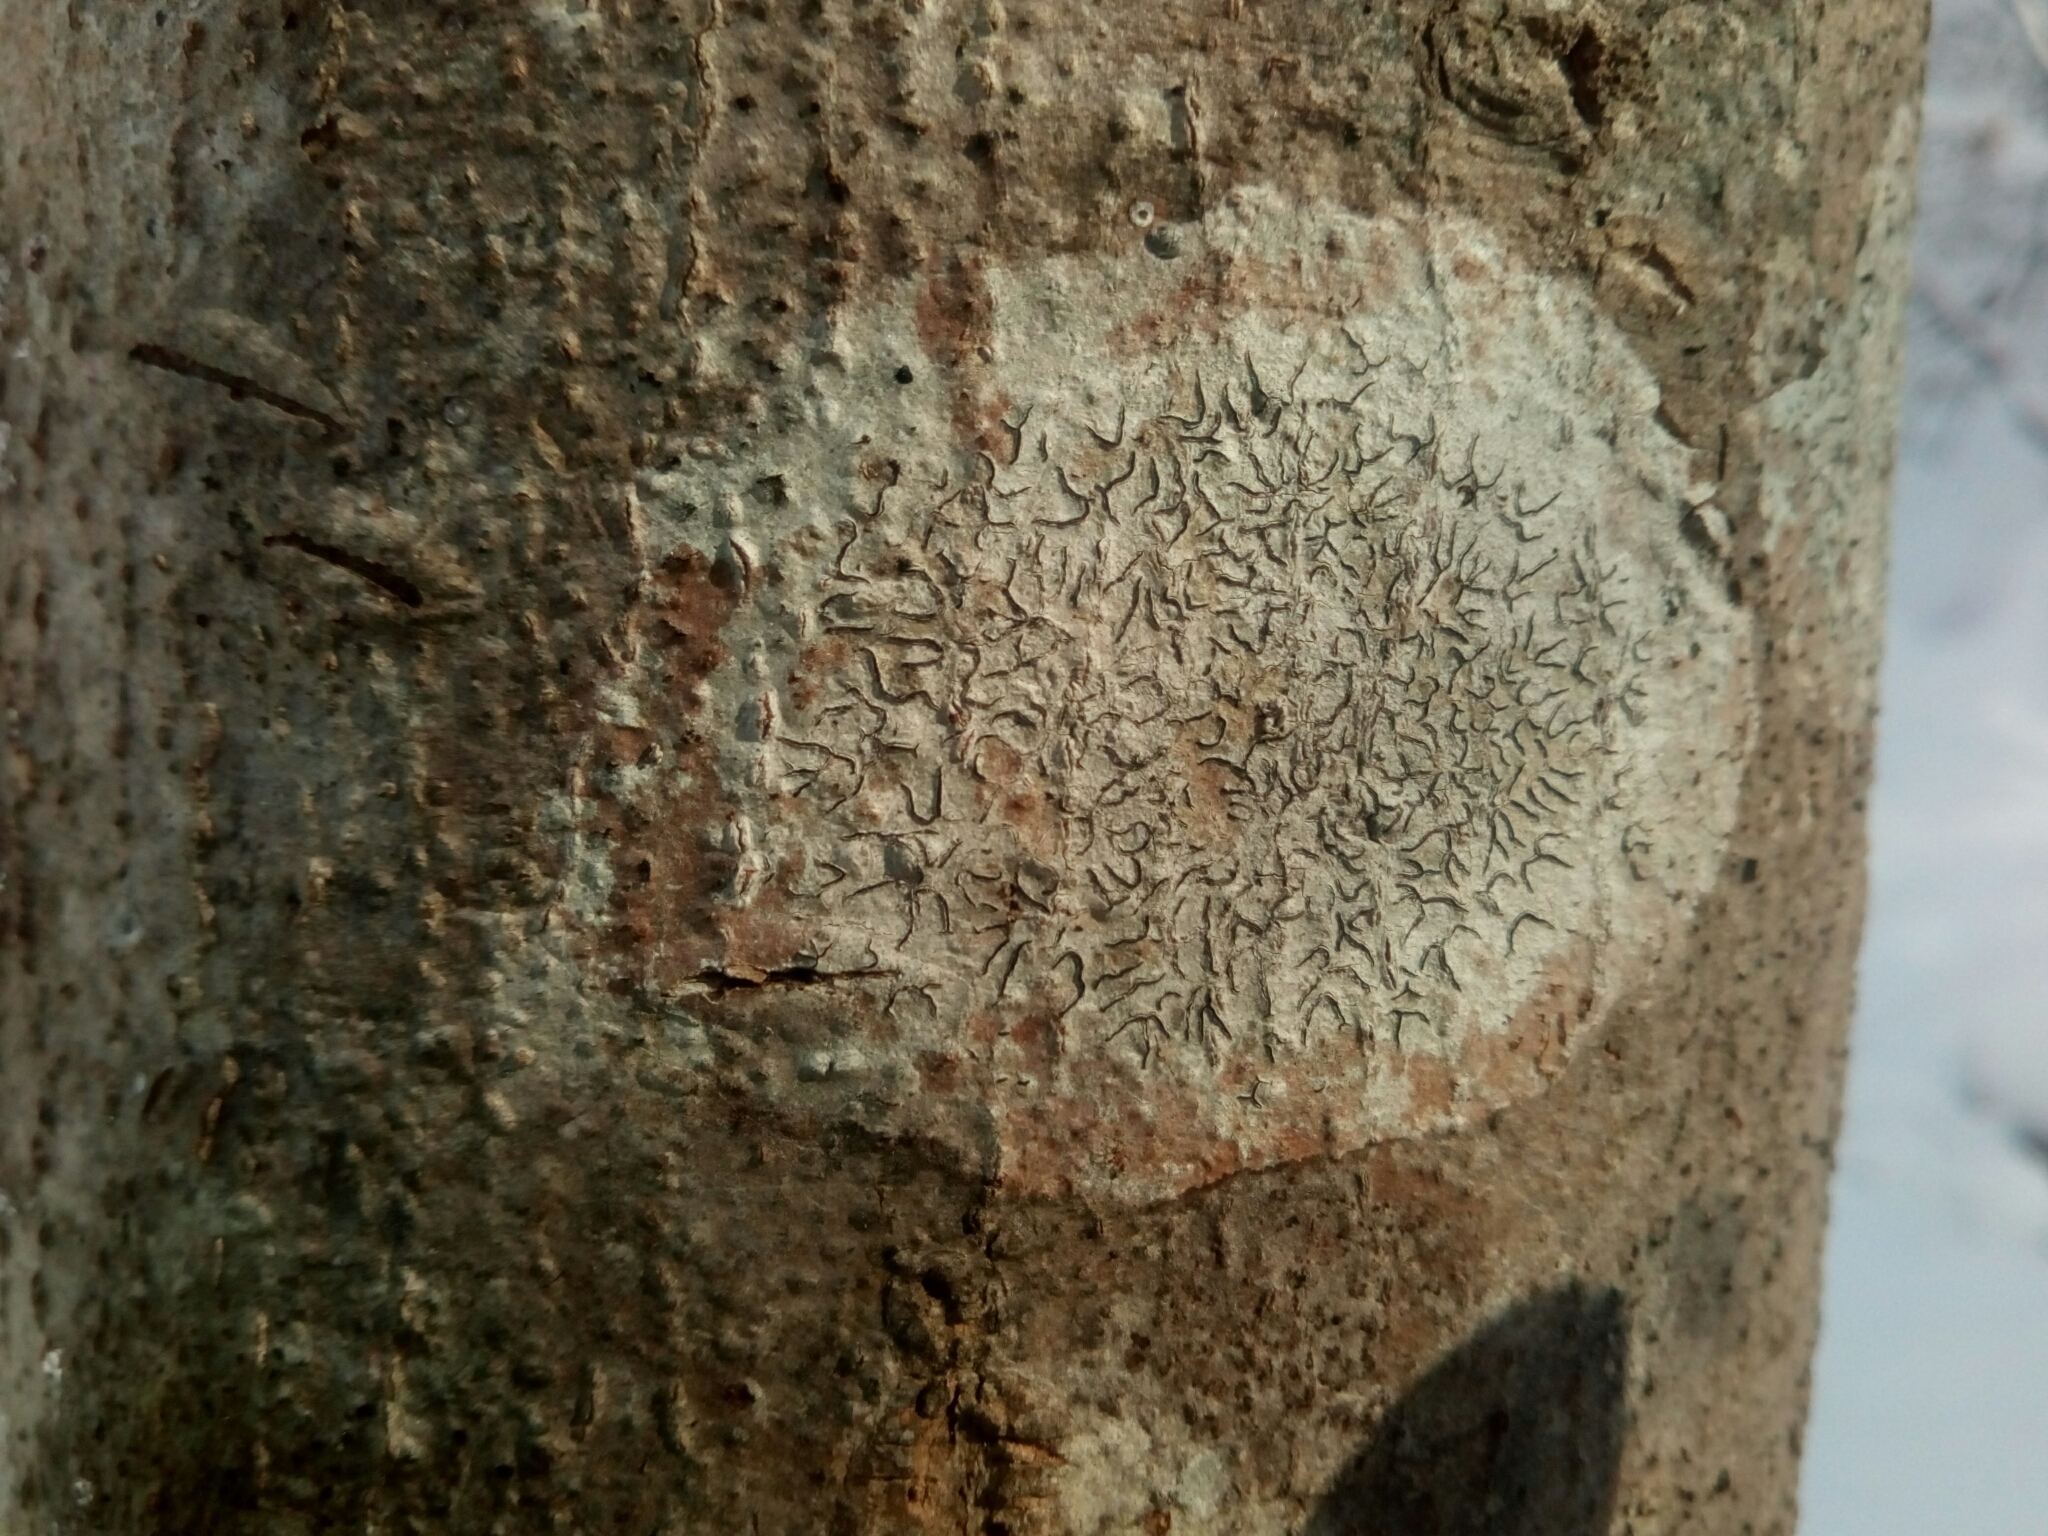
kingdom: Fungi
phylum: Ascomycota
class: Lecanoromycetes
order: Ostropales
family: Graphidaceae
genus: Graphis
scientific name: Graphis scripta
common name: Script lichen
